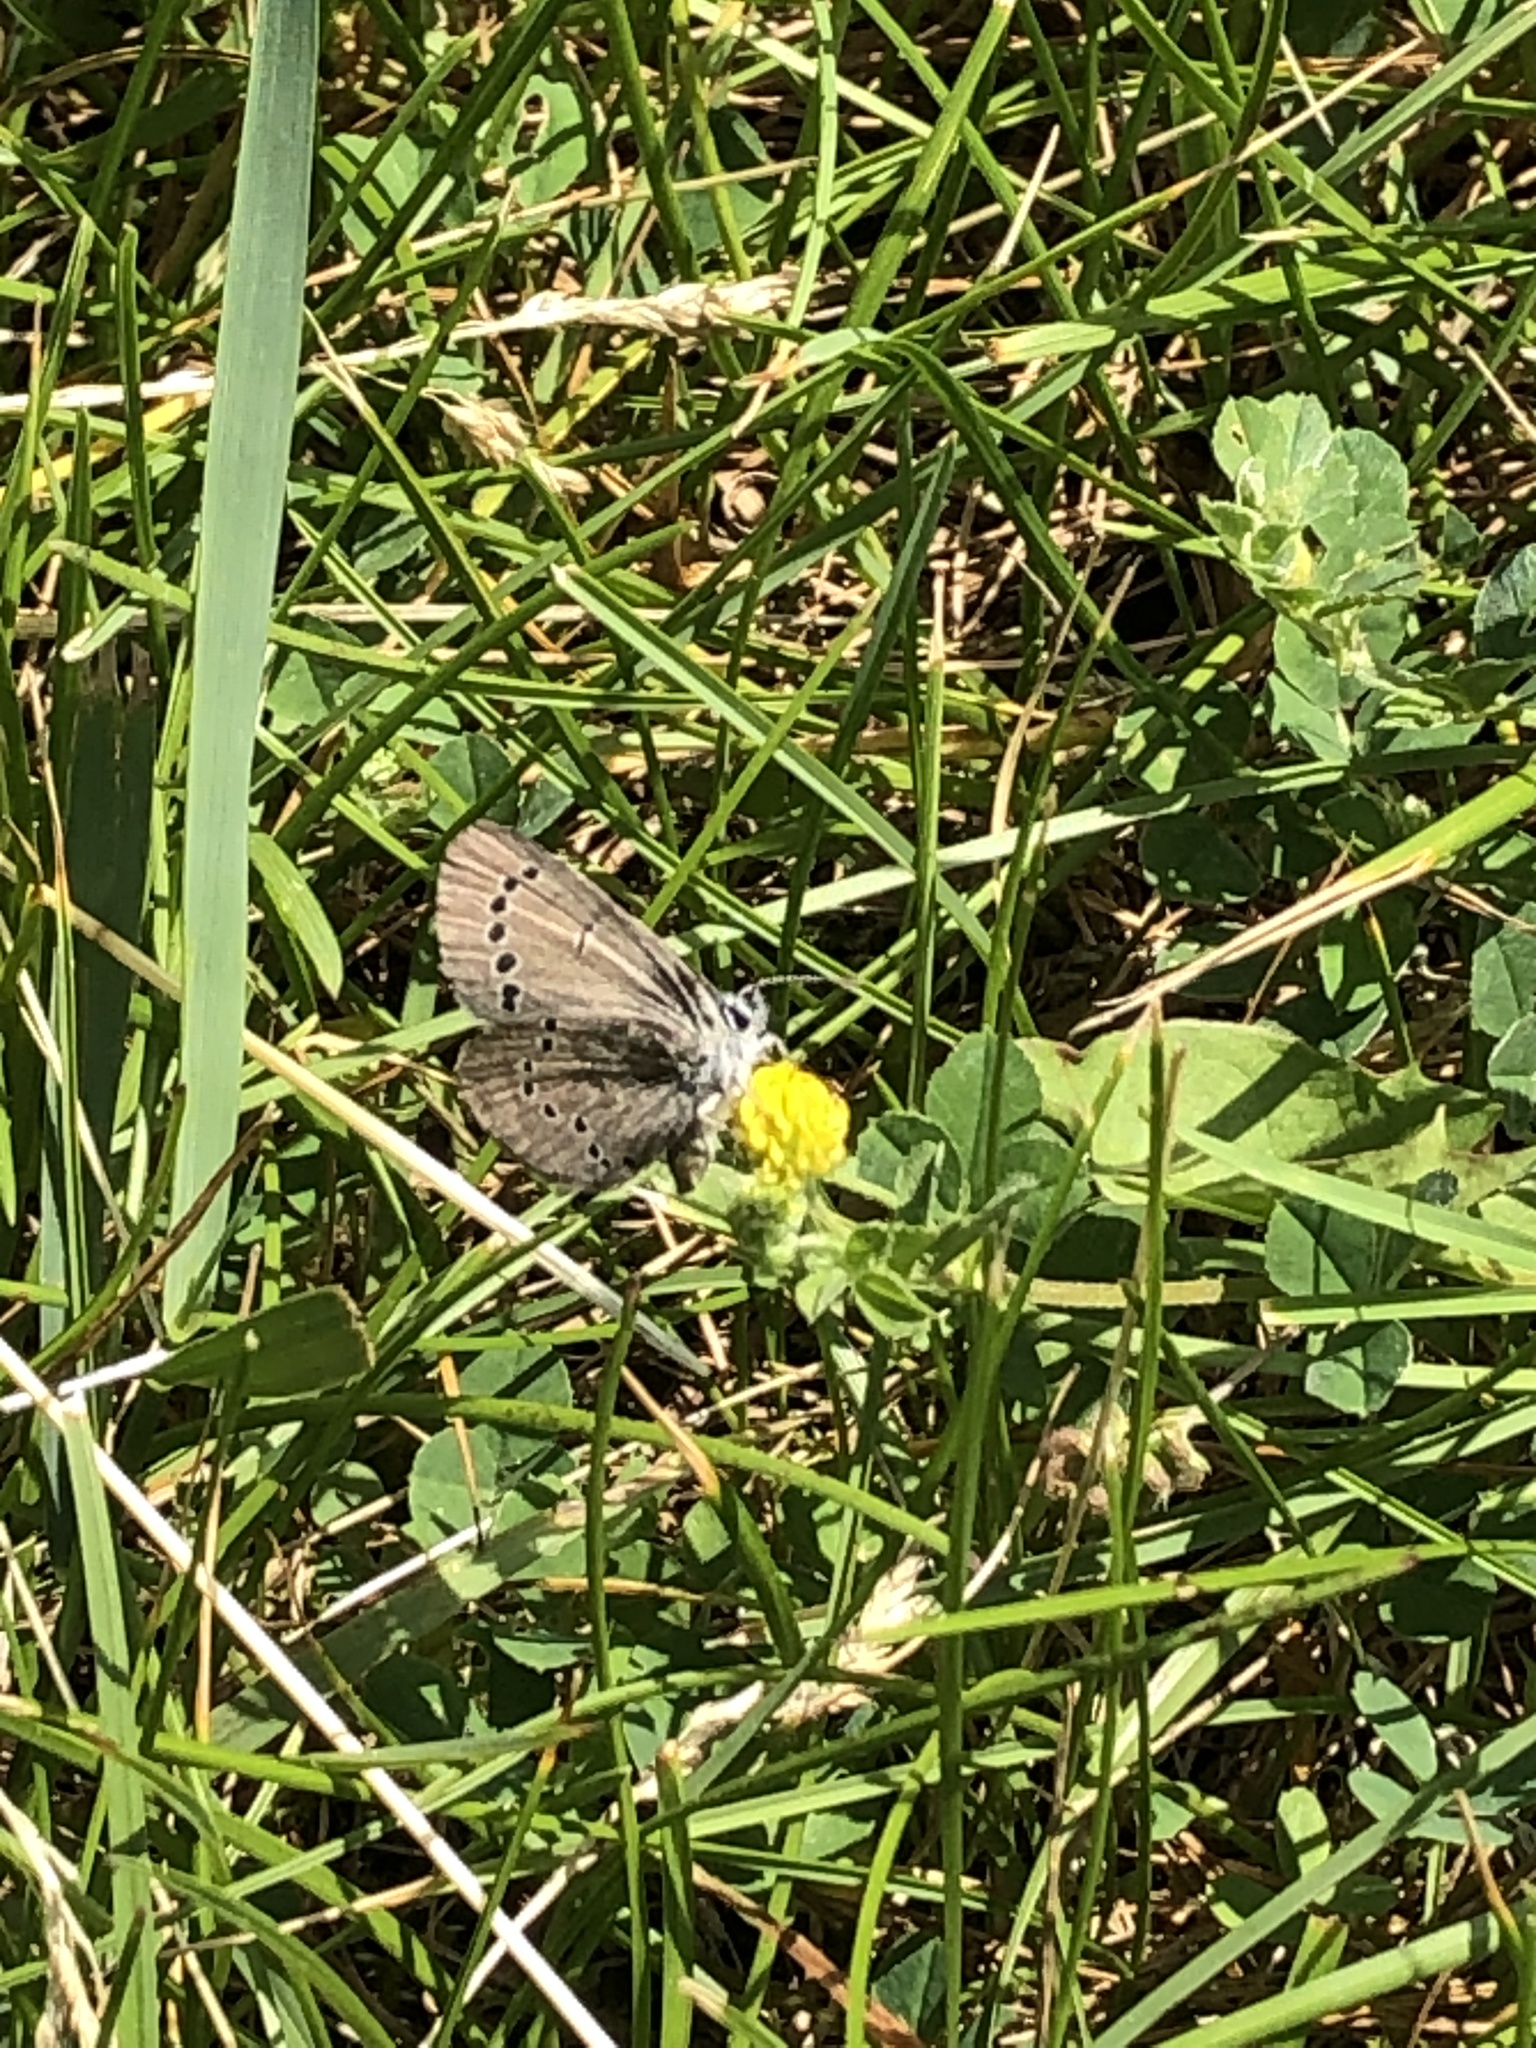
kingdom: Animalia
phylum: Arthropoda
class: Insecta
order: Lepidoptera
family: Lycaenidae
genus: Glaucopsyche
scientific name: Glaucopsyche lygdamus
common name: Silvery blue
